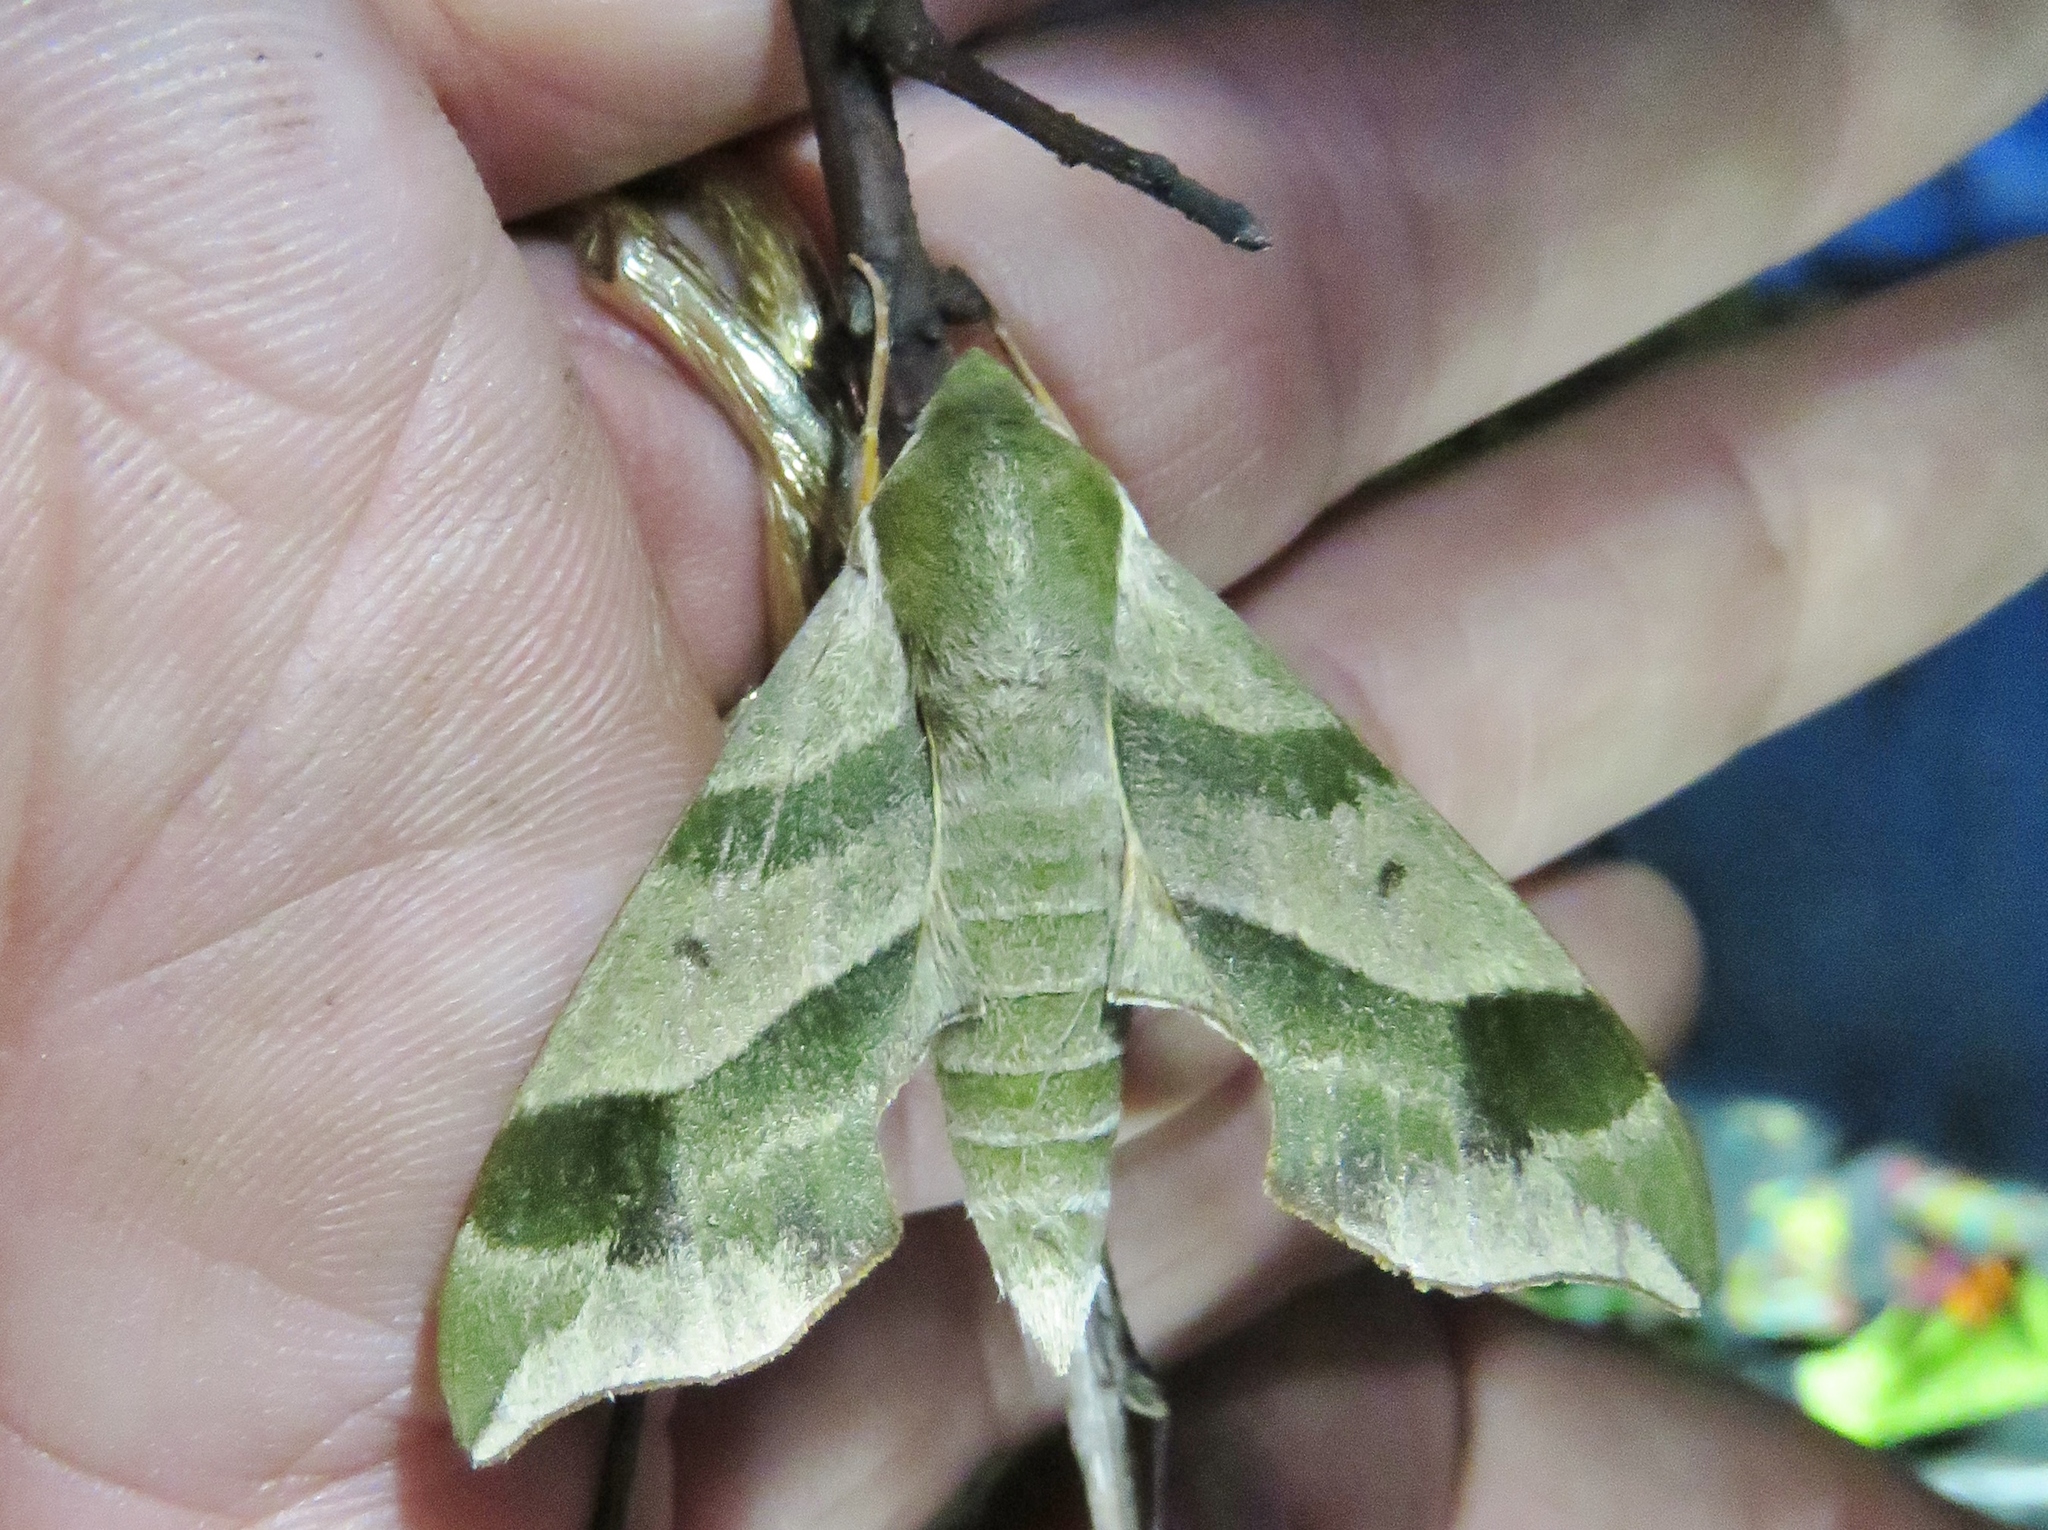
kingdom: Animalia
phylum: Arthropoda
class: Insecta
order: Lepidoptera
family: Sphingidae
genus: Darapsa
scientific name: Darapsa myron
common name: Hog sphinx
